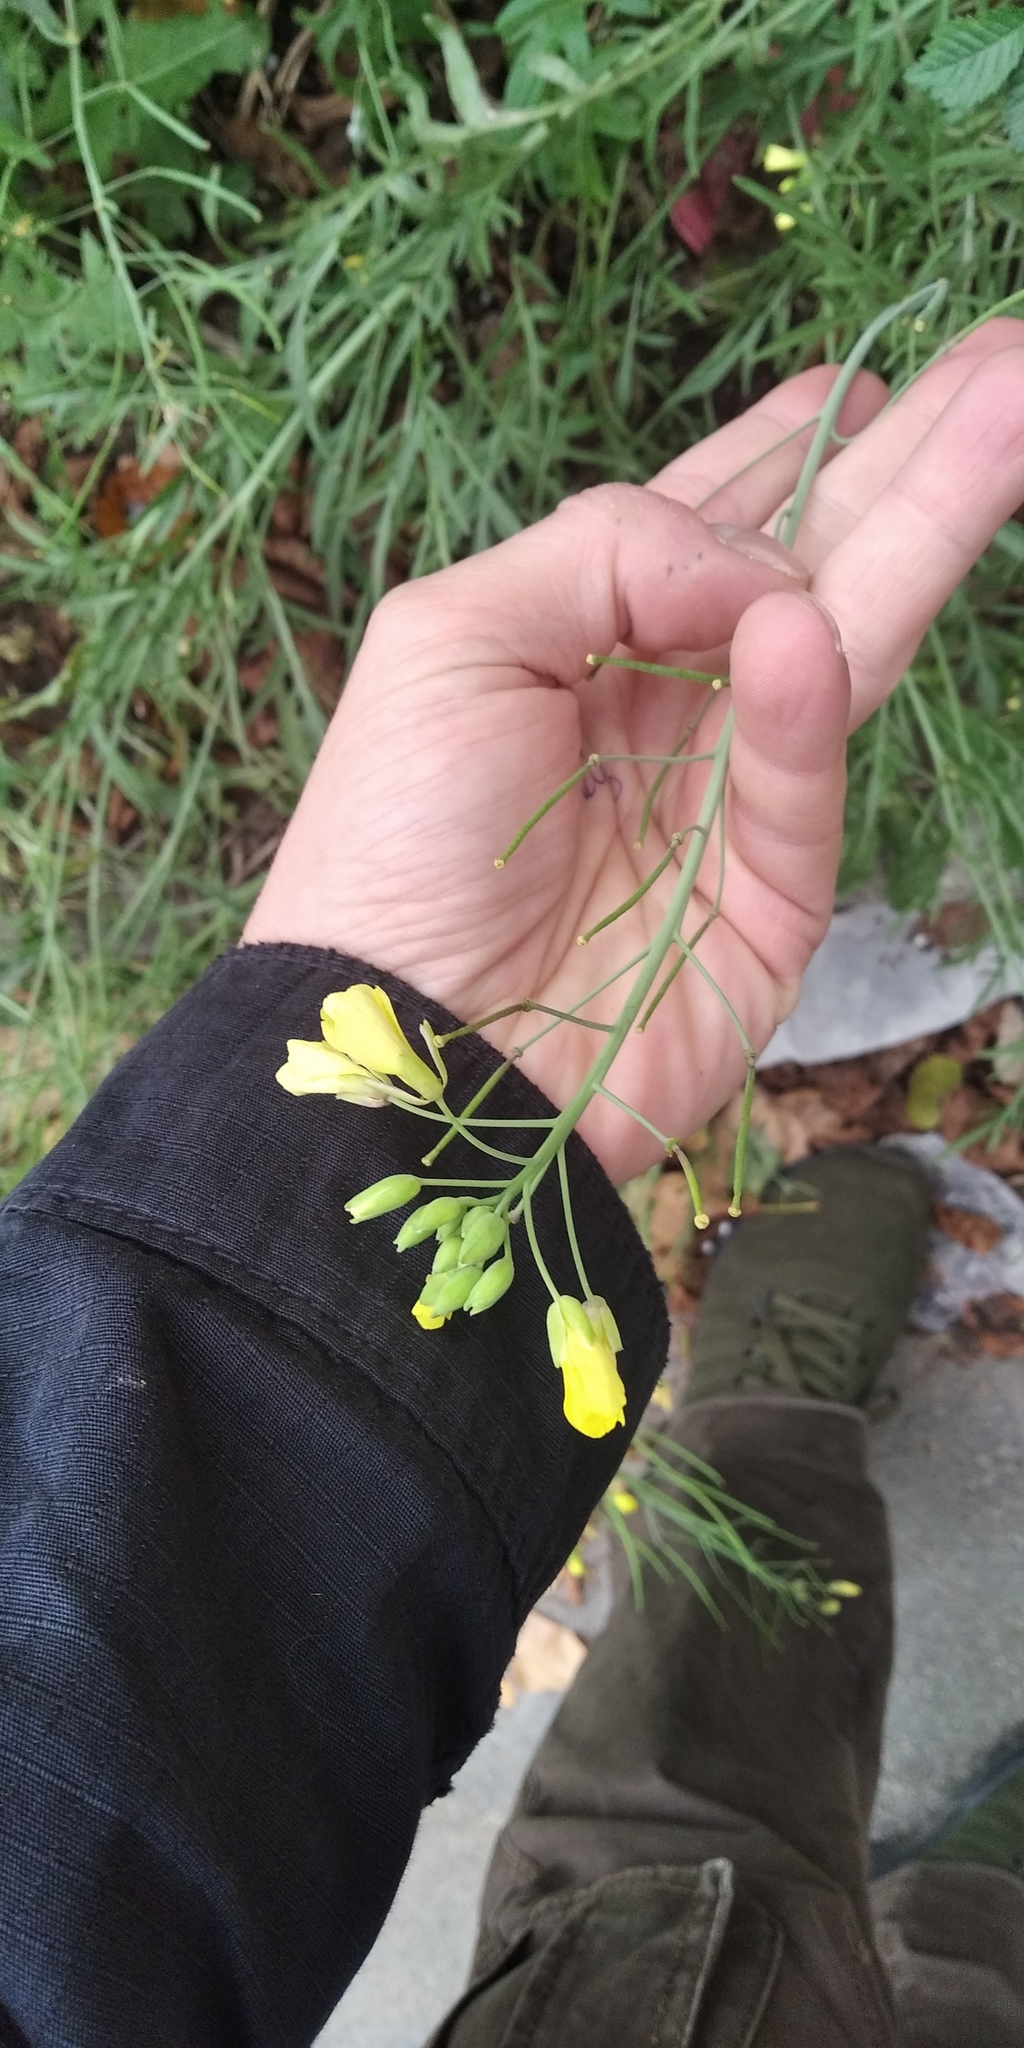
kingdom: Plantae
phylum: Tracheophyta
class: Magnoliopsida
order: Brassicales
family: Brassicaceae
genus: Diplotaxis
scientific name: Diplotaxis tenuifolia
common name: Perennial wall-rocket
